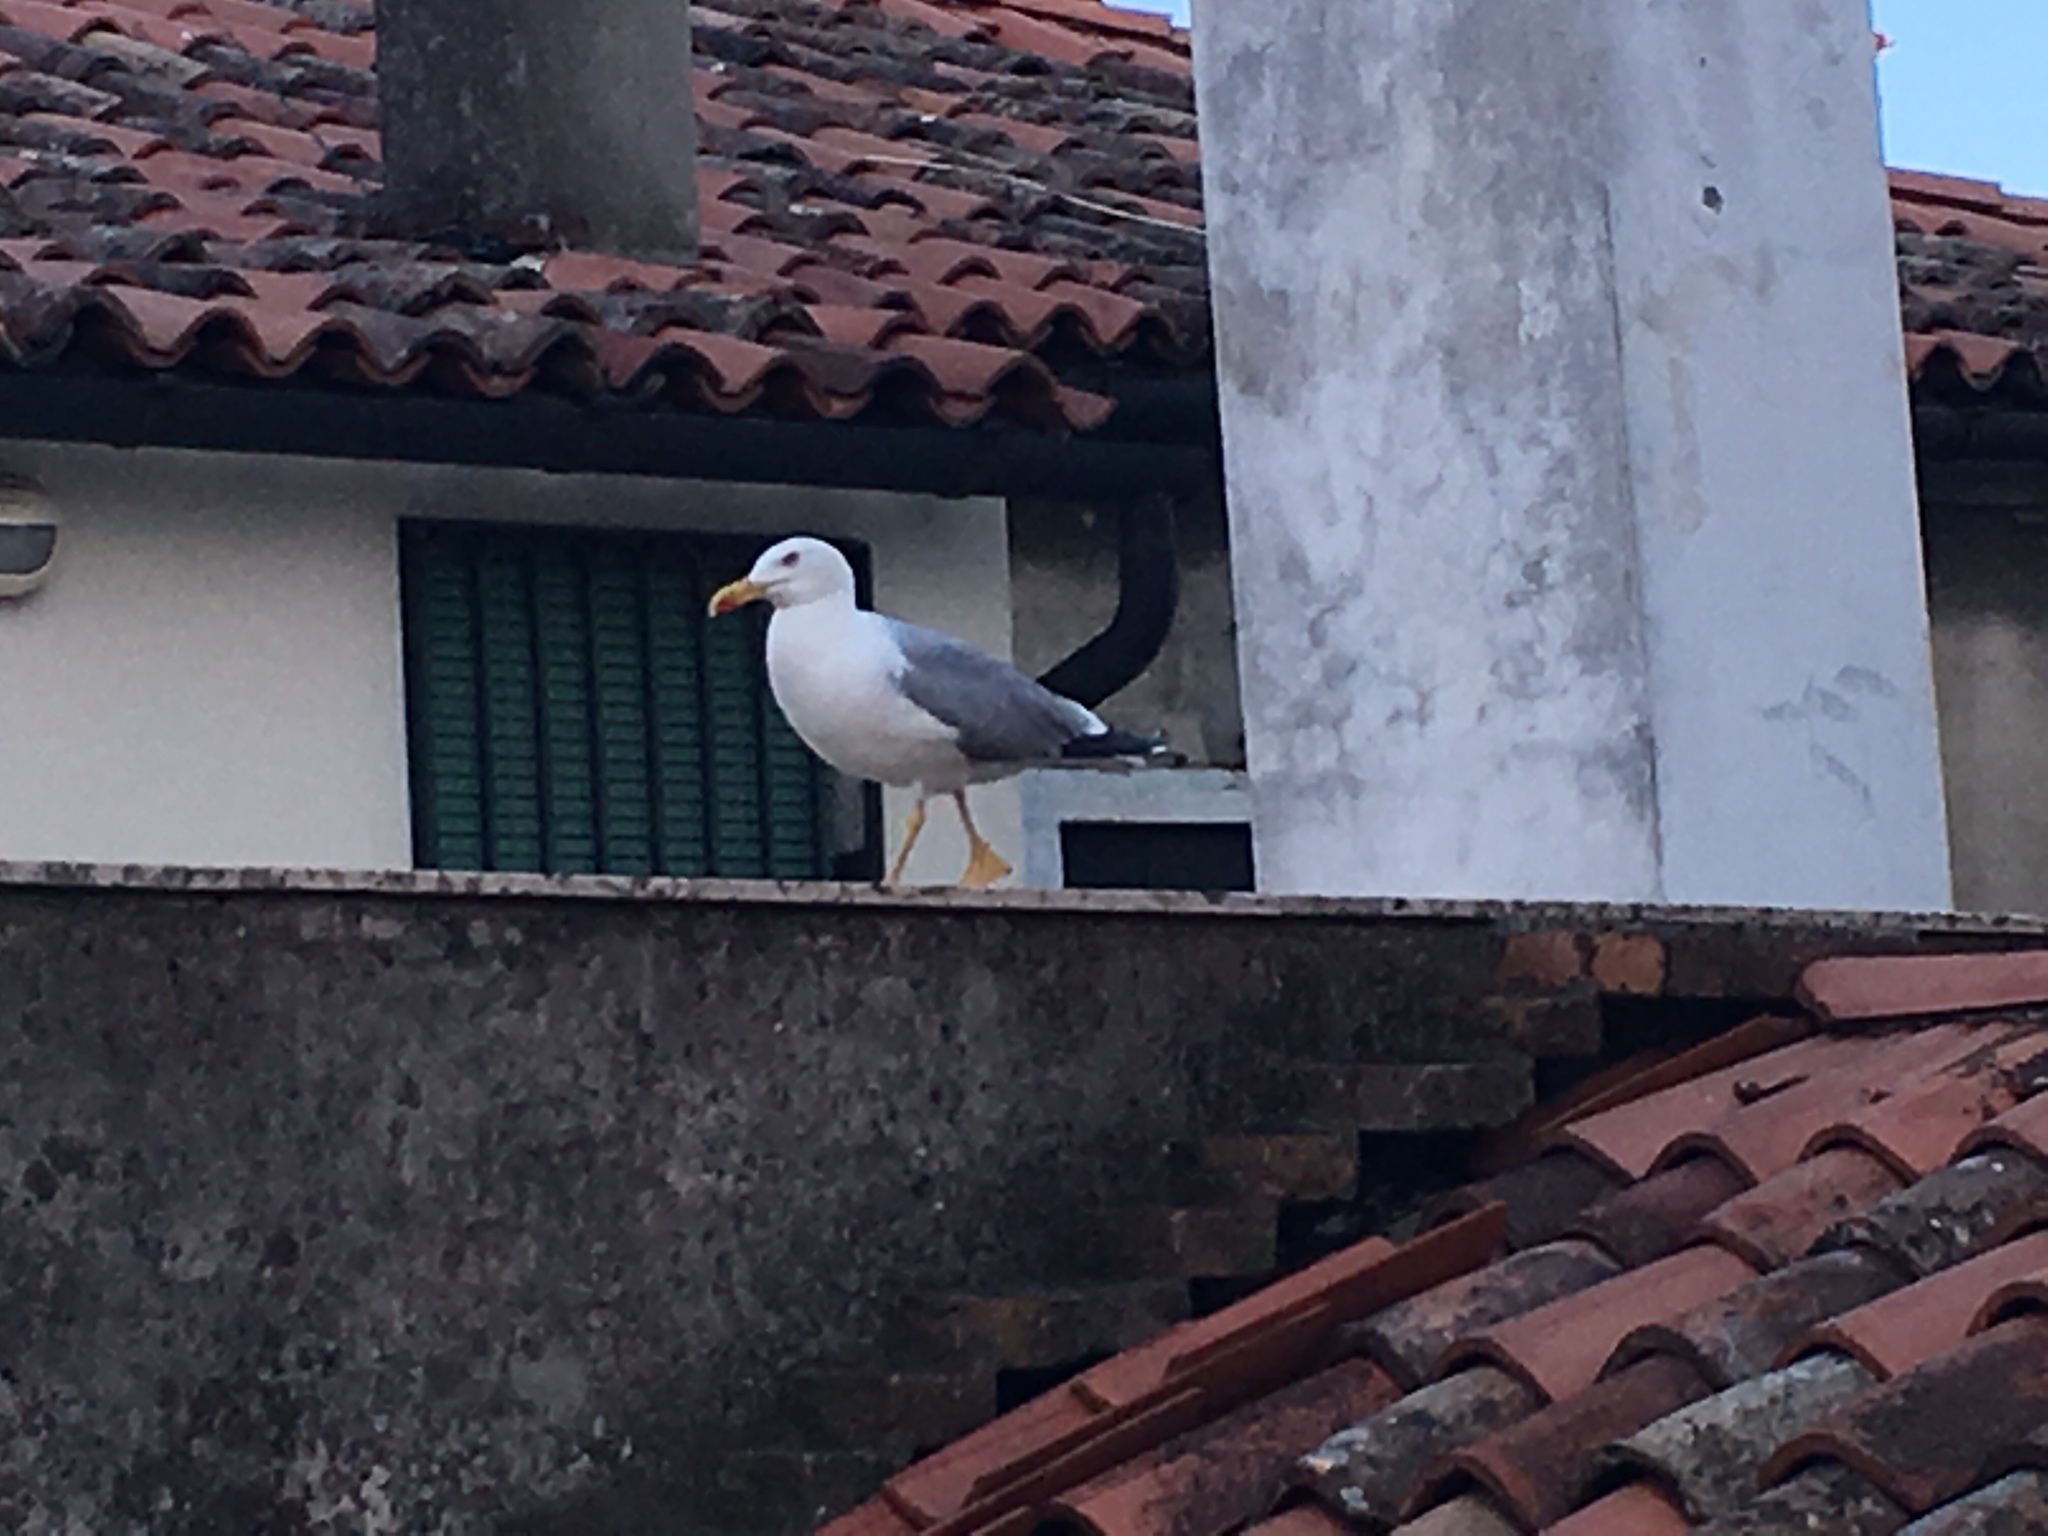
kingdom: Animalia
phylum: Chordata
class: Aves
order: Charadriiformes
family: Laridae
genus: Larus
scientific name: Larus michahellis
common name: Yellow-legged gull
